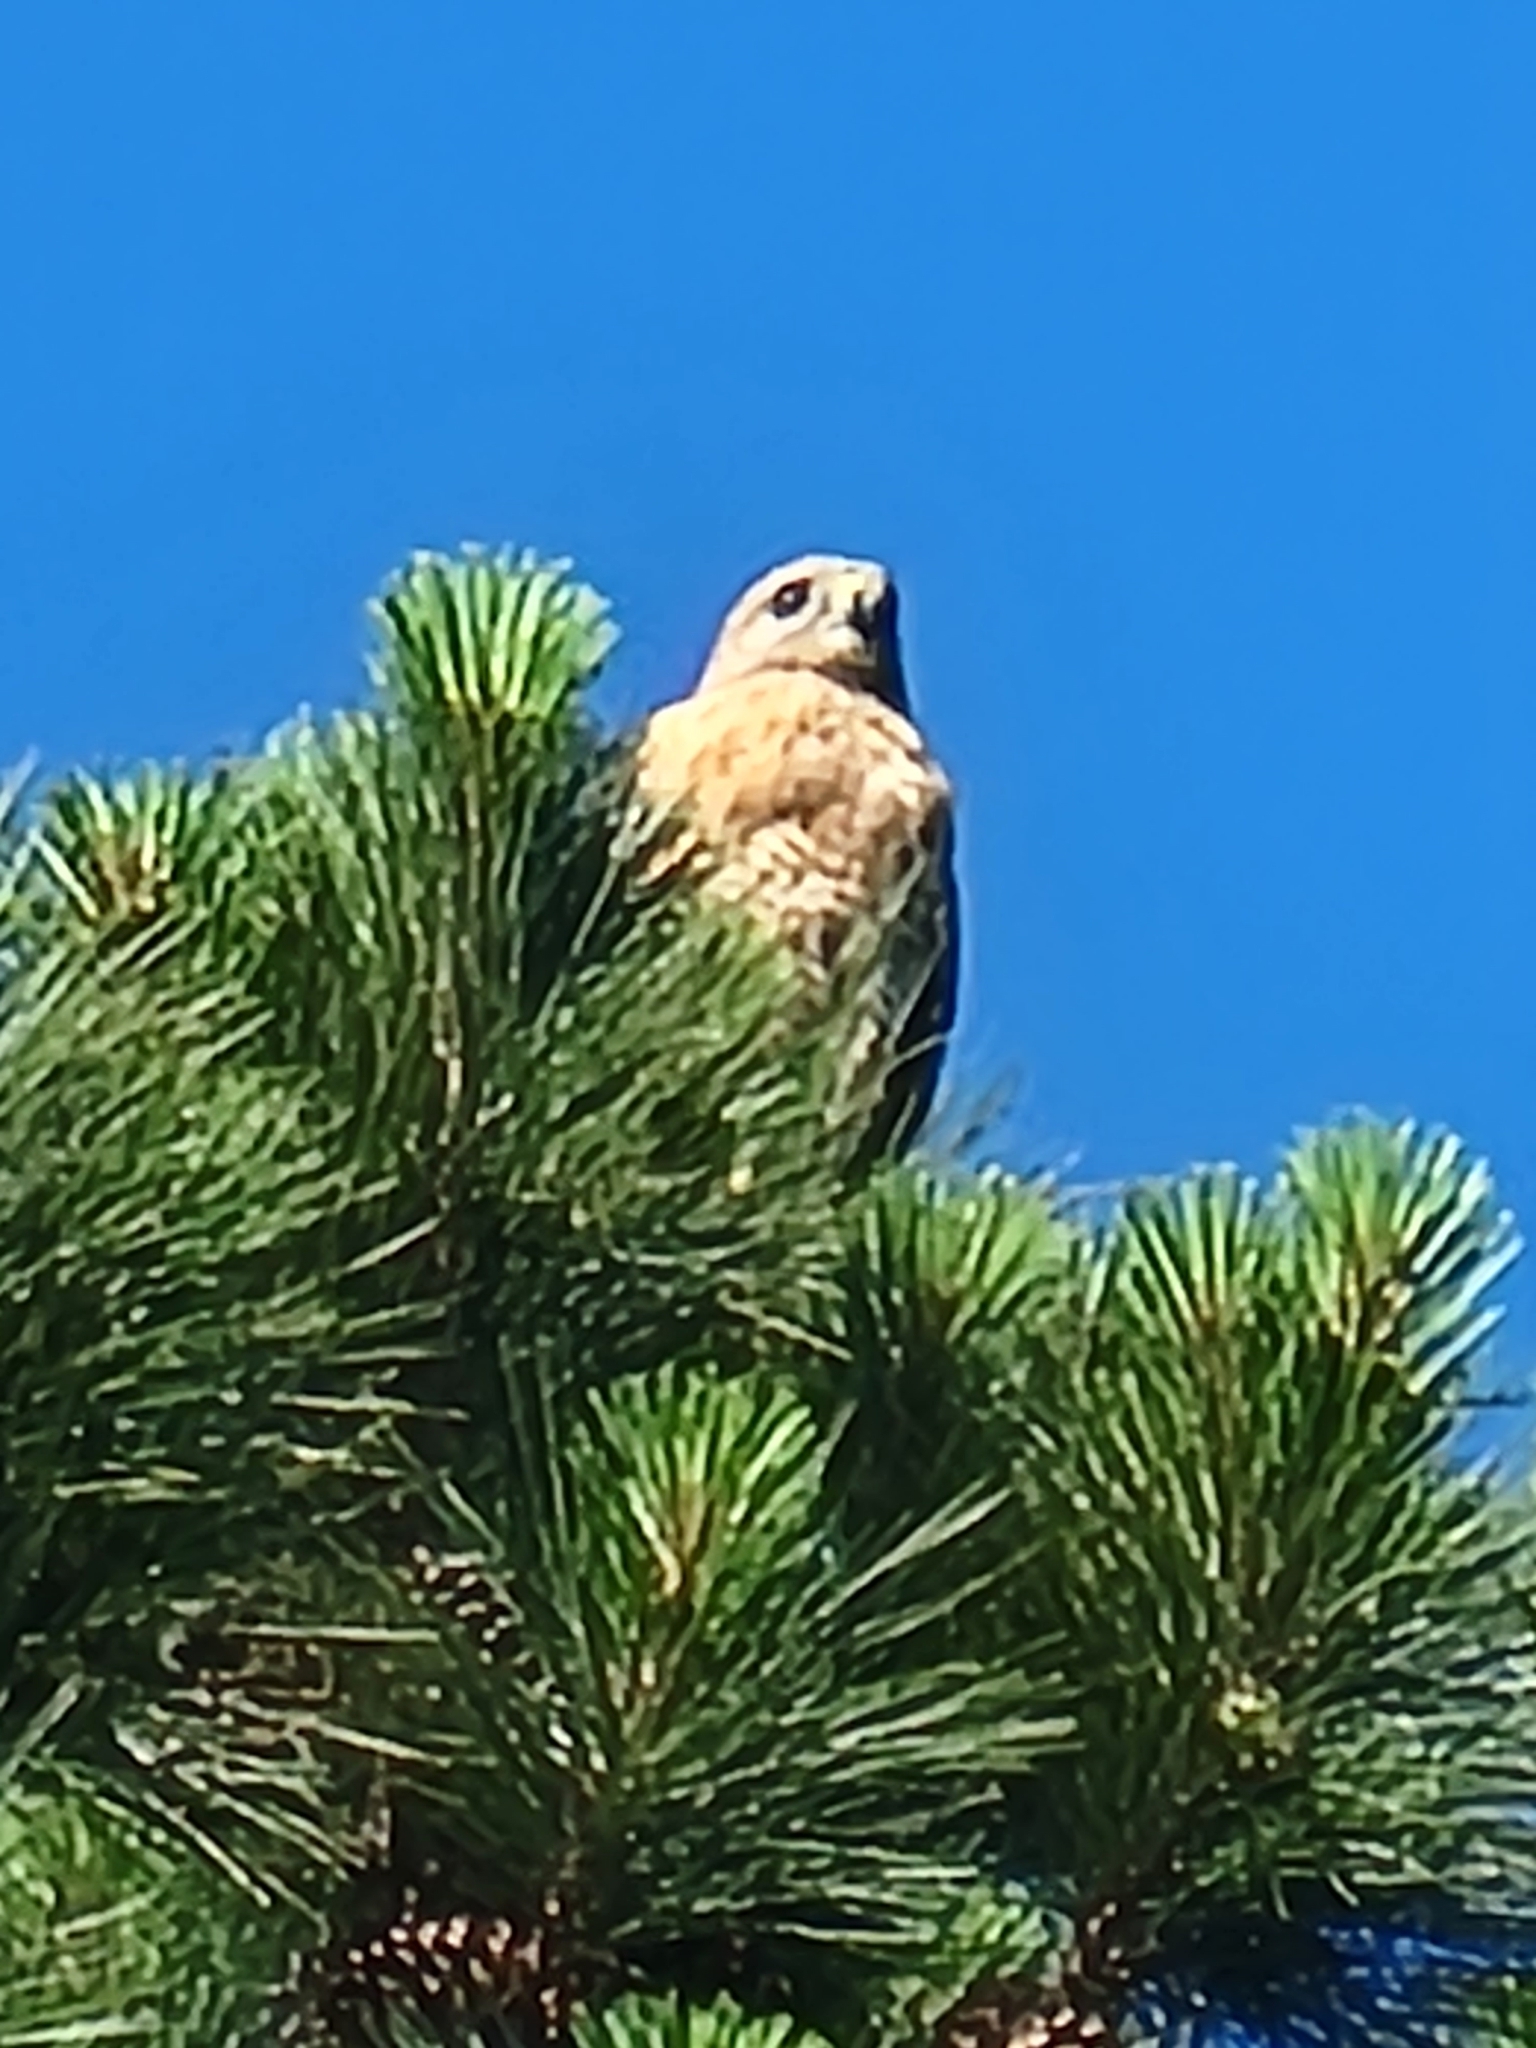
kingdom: Animalia
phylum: Chordata
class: Aves
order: Accipitriformes
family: Accipitridae
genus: Buteo
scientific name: Buteo lineatus
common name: Red-shouldered hawk
